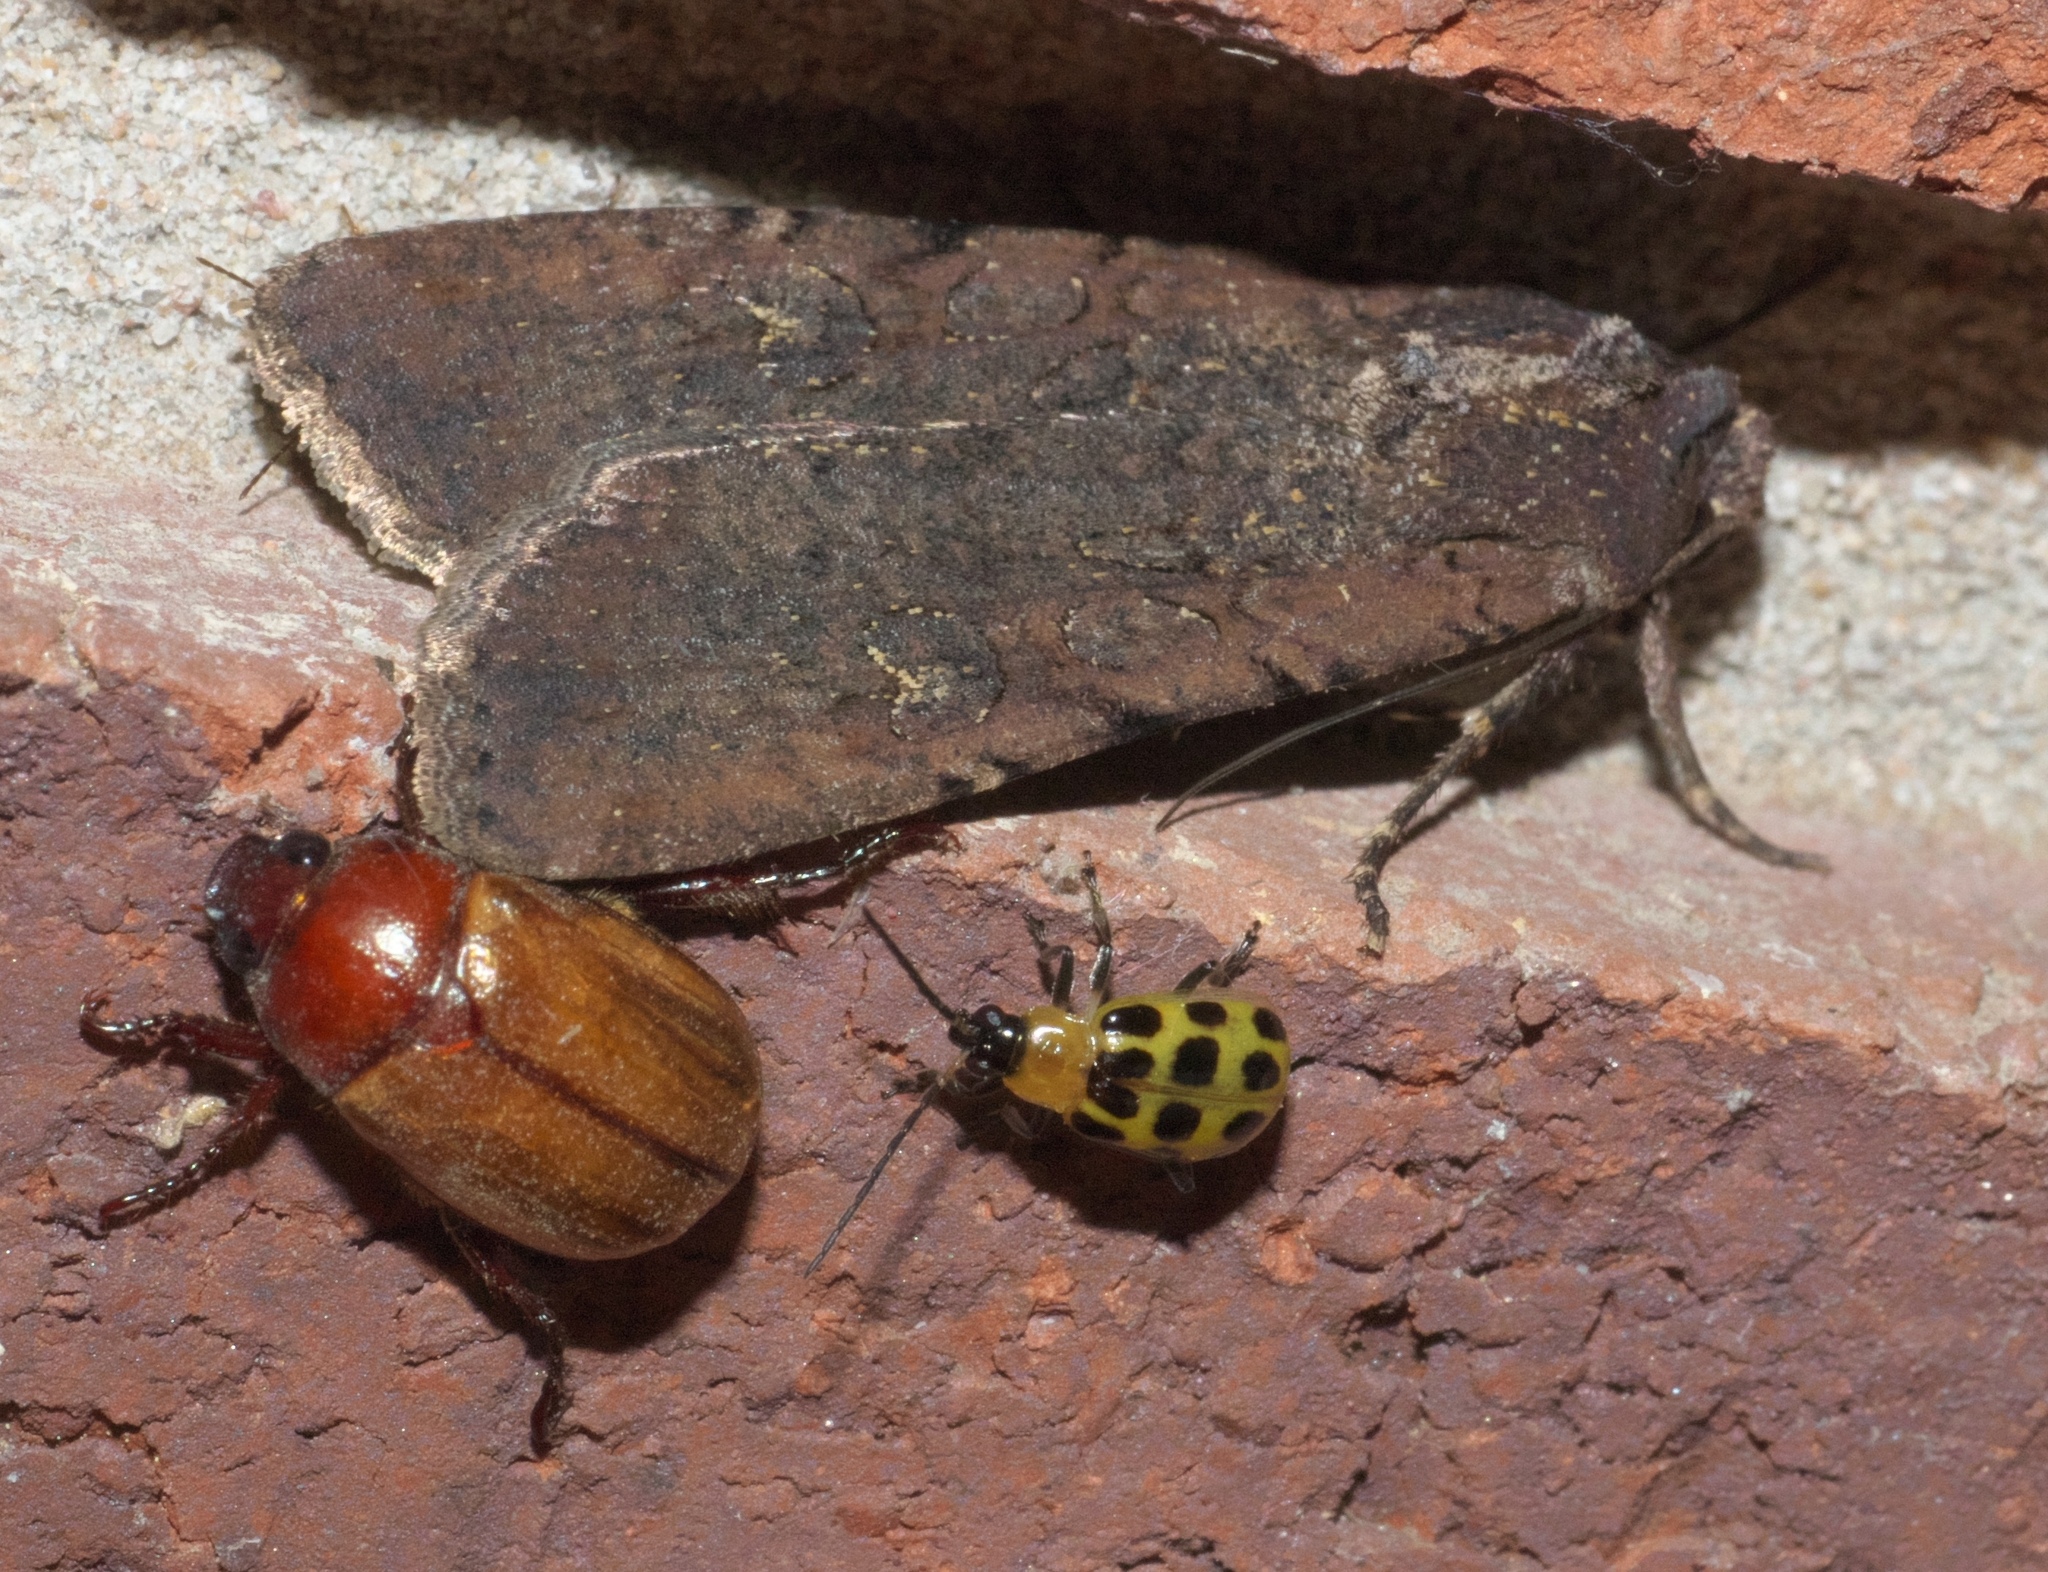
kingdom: Animalia
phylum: Arthropoda
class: Insecta
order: Lepidoptera
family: Noctuidae
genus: Peridroma
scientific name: Peridroma saucia
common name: Pearly underwing
